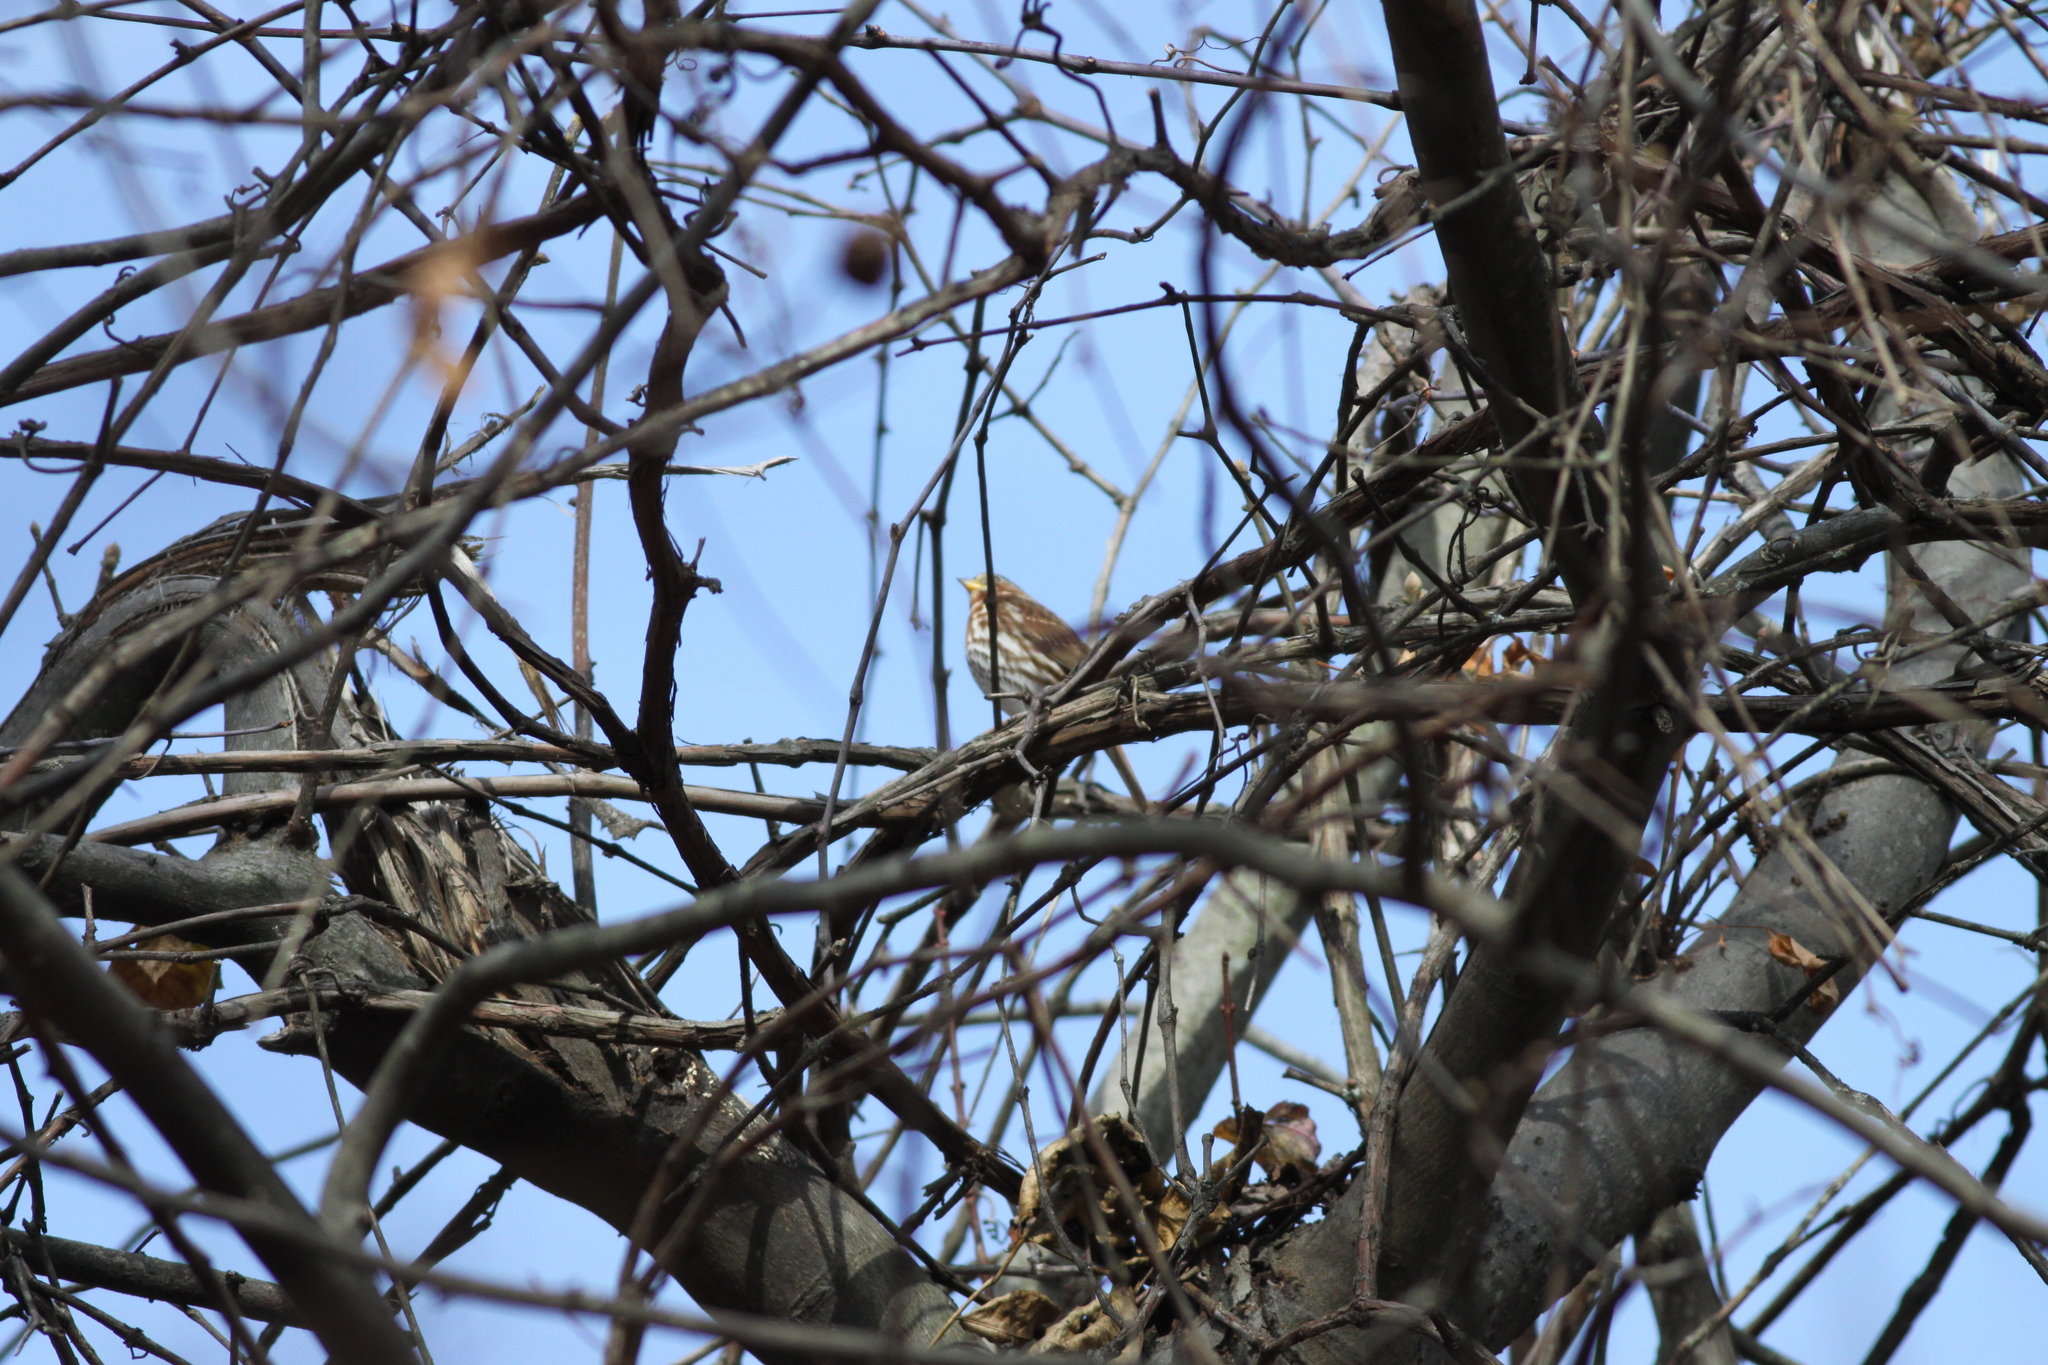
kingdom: Animalia
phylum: Chordata
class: Aves
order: Passeriformes
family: Passerellidae
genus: Passerella
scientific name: Passerella iliaca
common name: Fox sparrow
